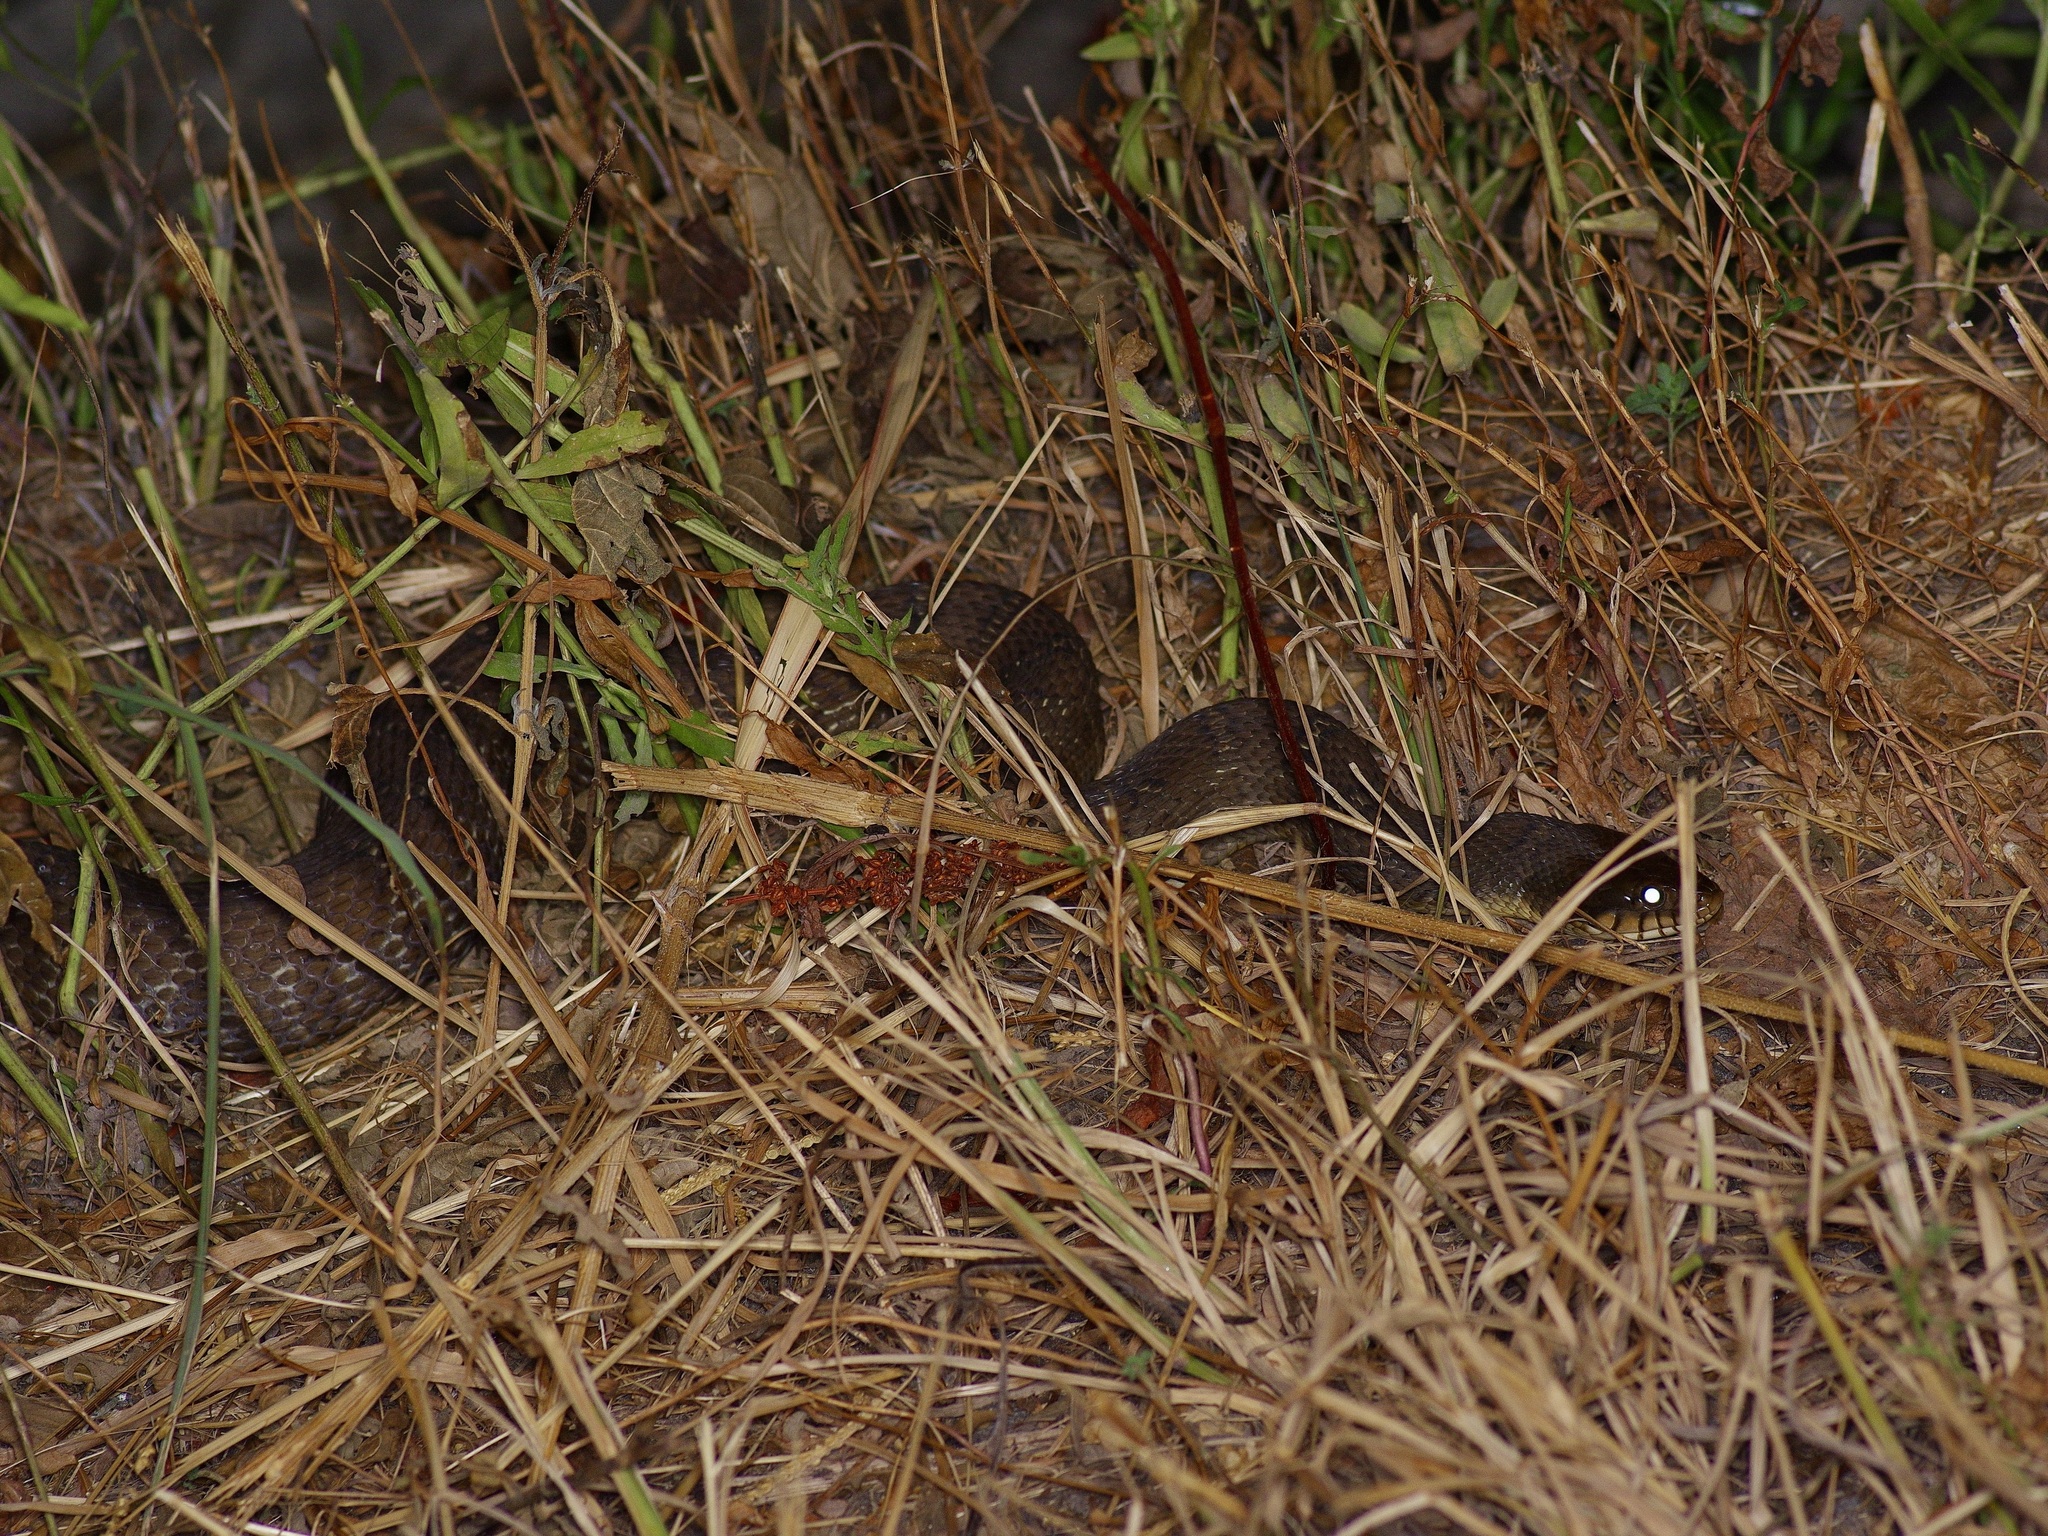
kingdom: Animalia
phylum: Chordata
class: Squamata
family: Colubridae
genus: Nerodia
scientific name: Nerodia erythrogaster
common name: Plainbelly water snake
